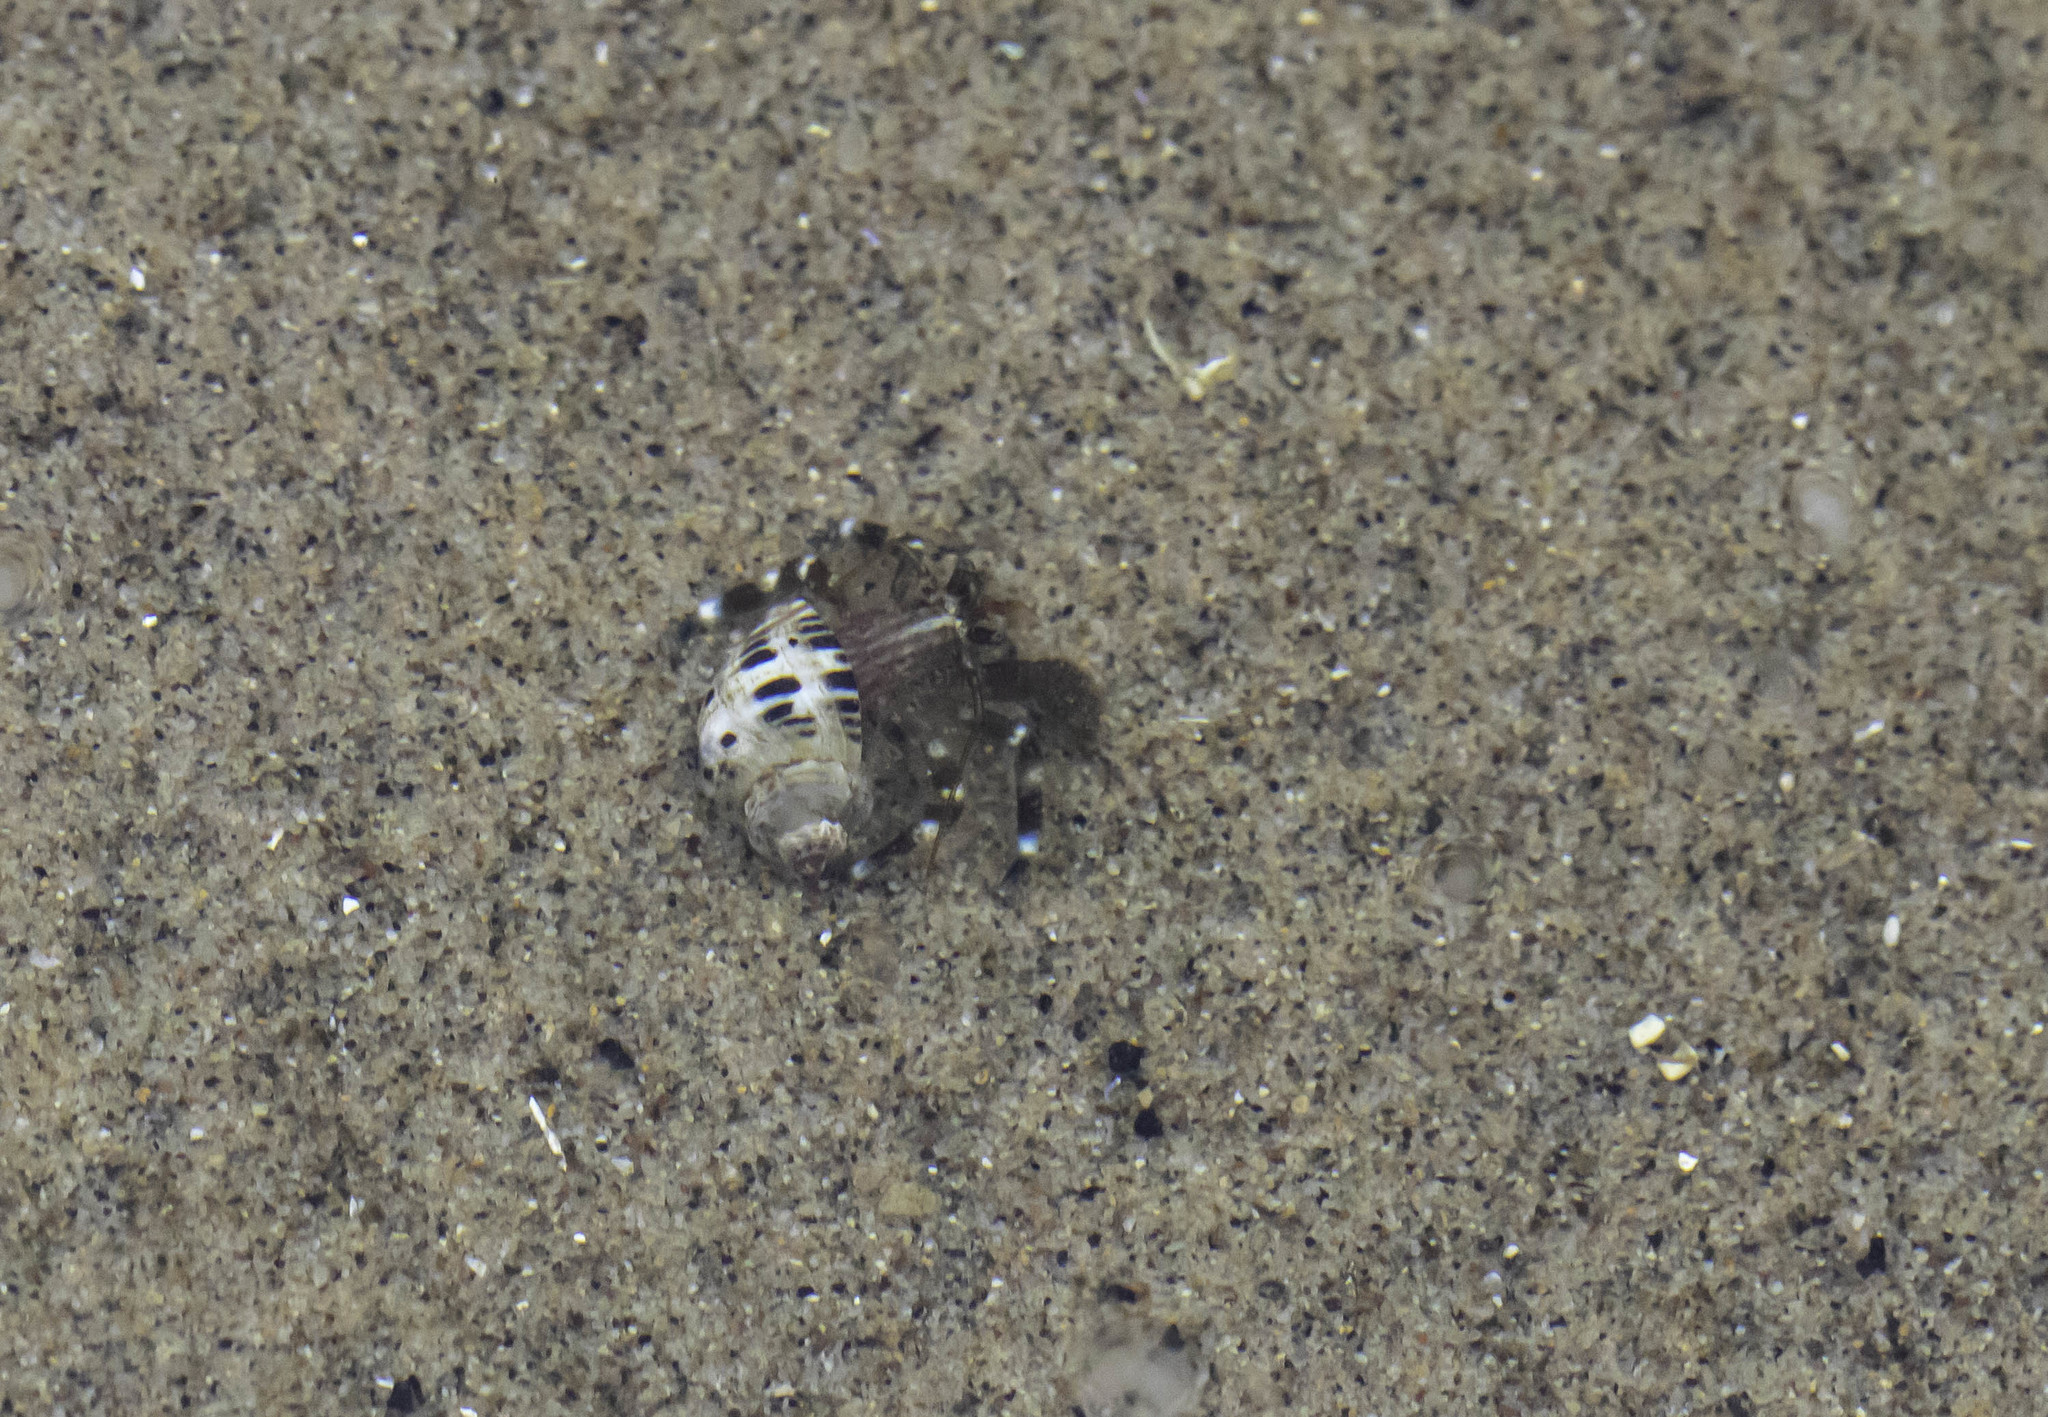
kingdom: Animalia
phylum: Arthropoda
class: Malacostraca
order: Decapoda
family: Paguridae
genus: Pagurus
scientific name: Pagurus samuelis
